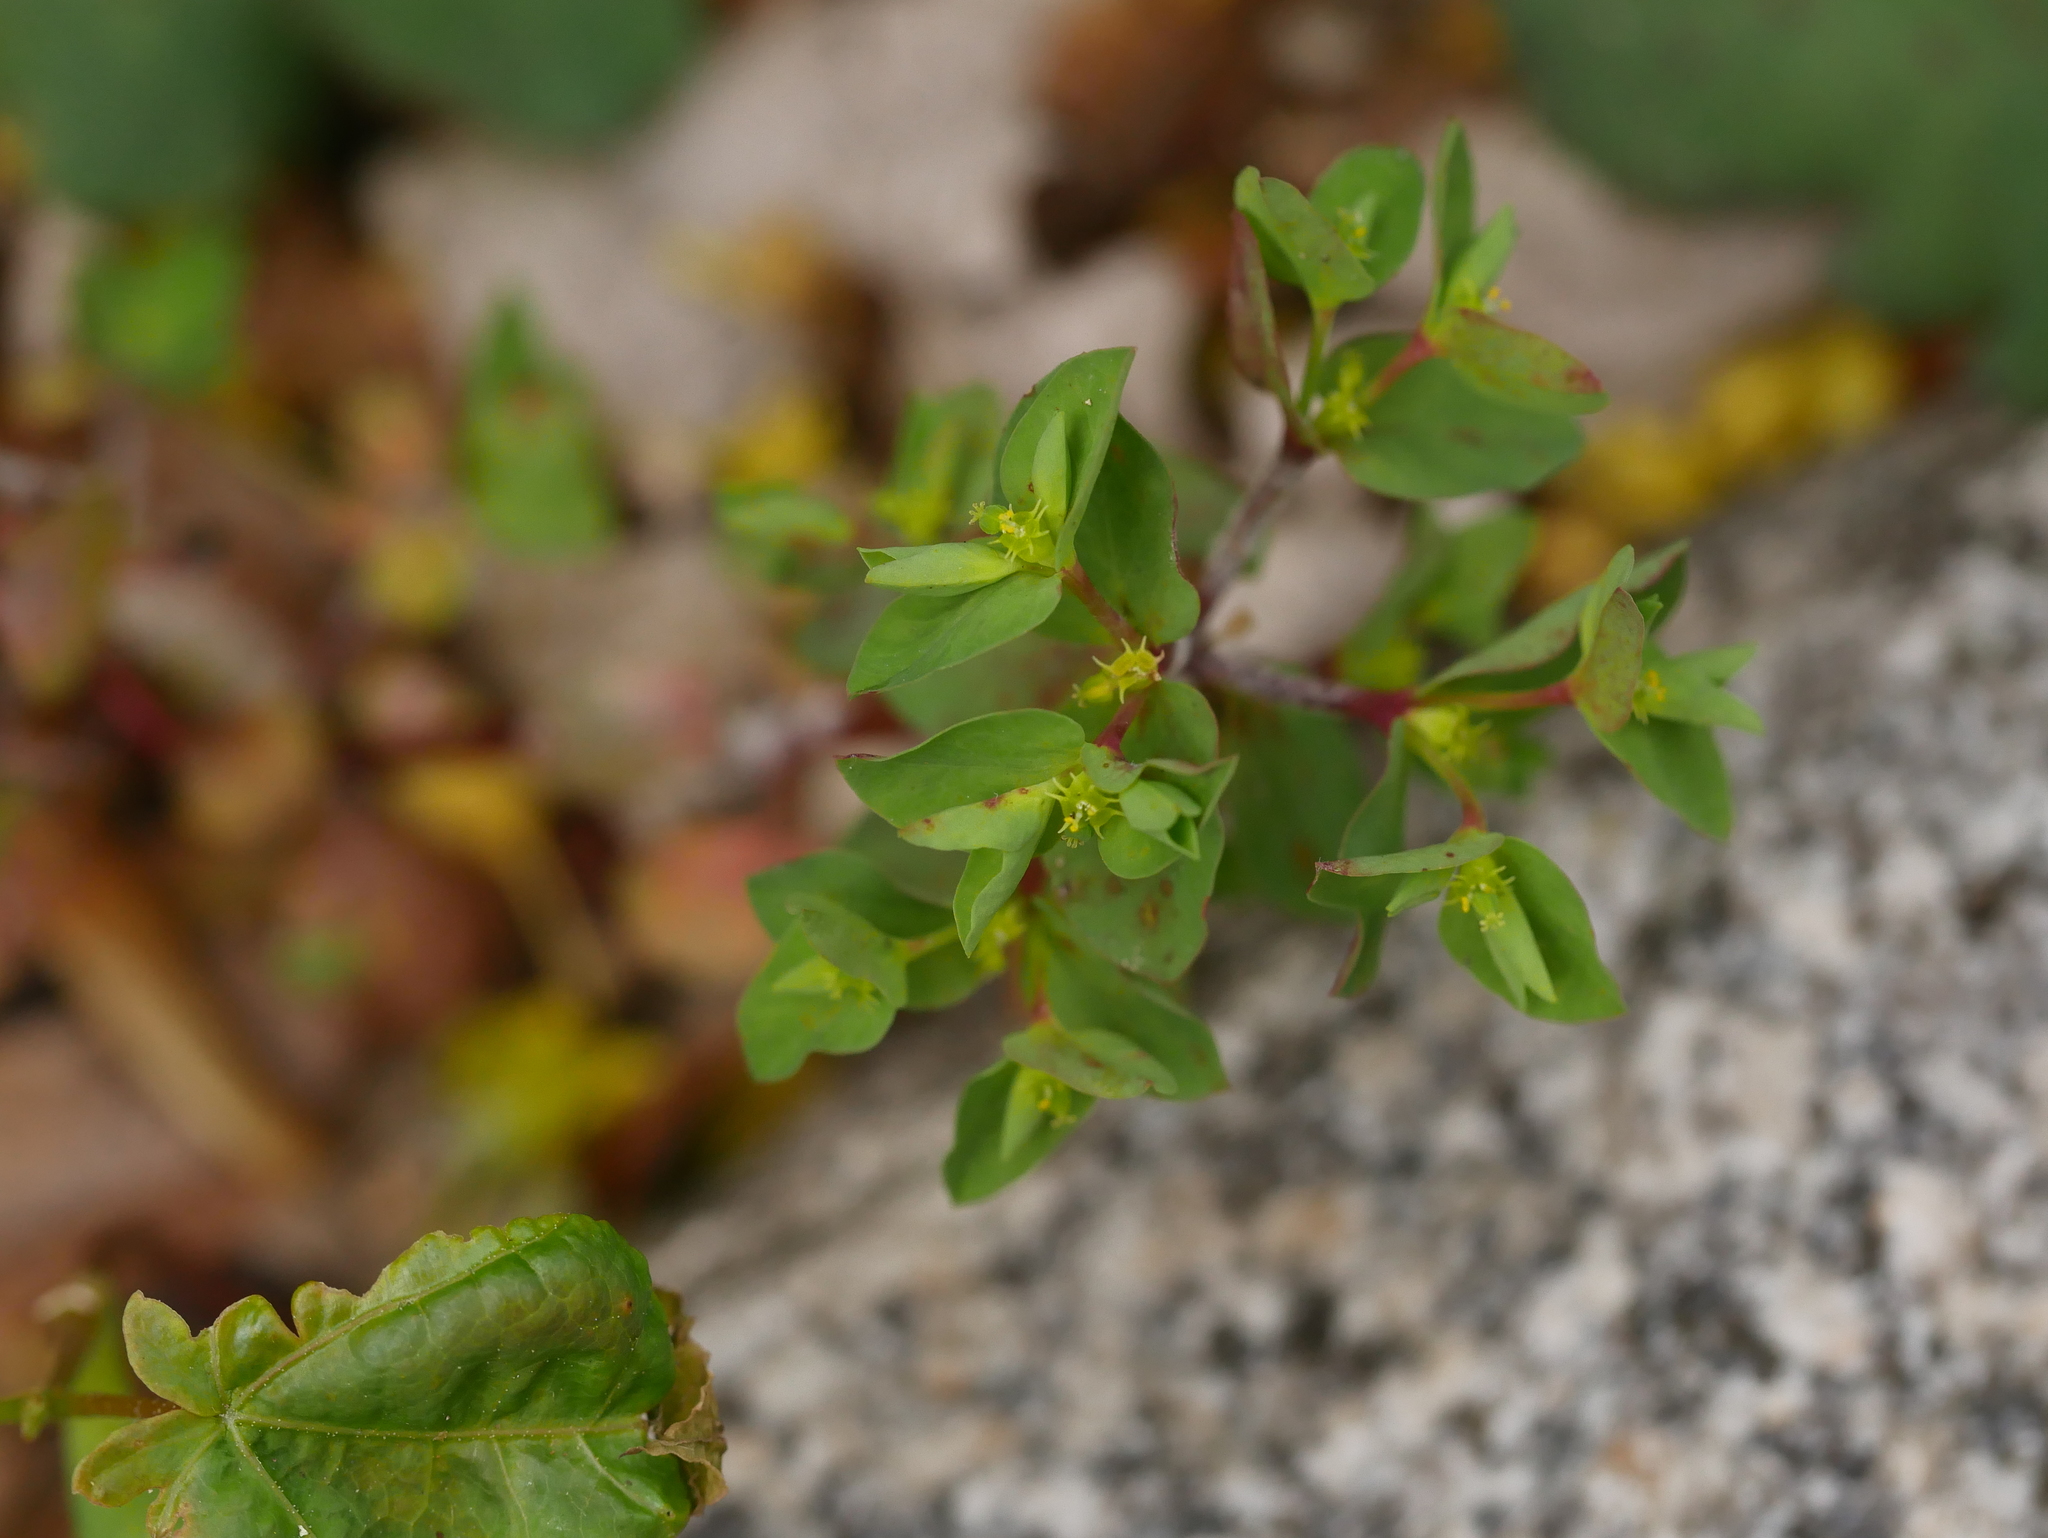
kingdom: Plantae
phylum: Tracheophyta
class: Magnoliopsida
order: Malpighiales
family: Euphorbiaceae
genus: Euphorbia
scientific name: Euphorbia peplus
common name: Petty spurge
